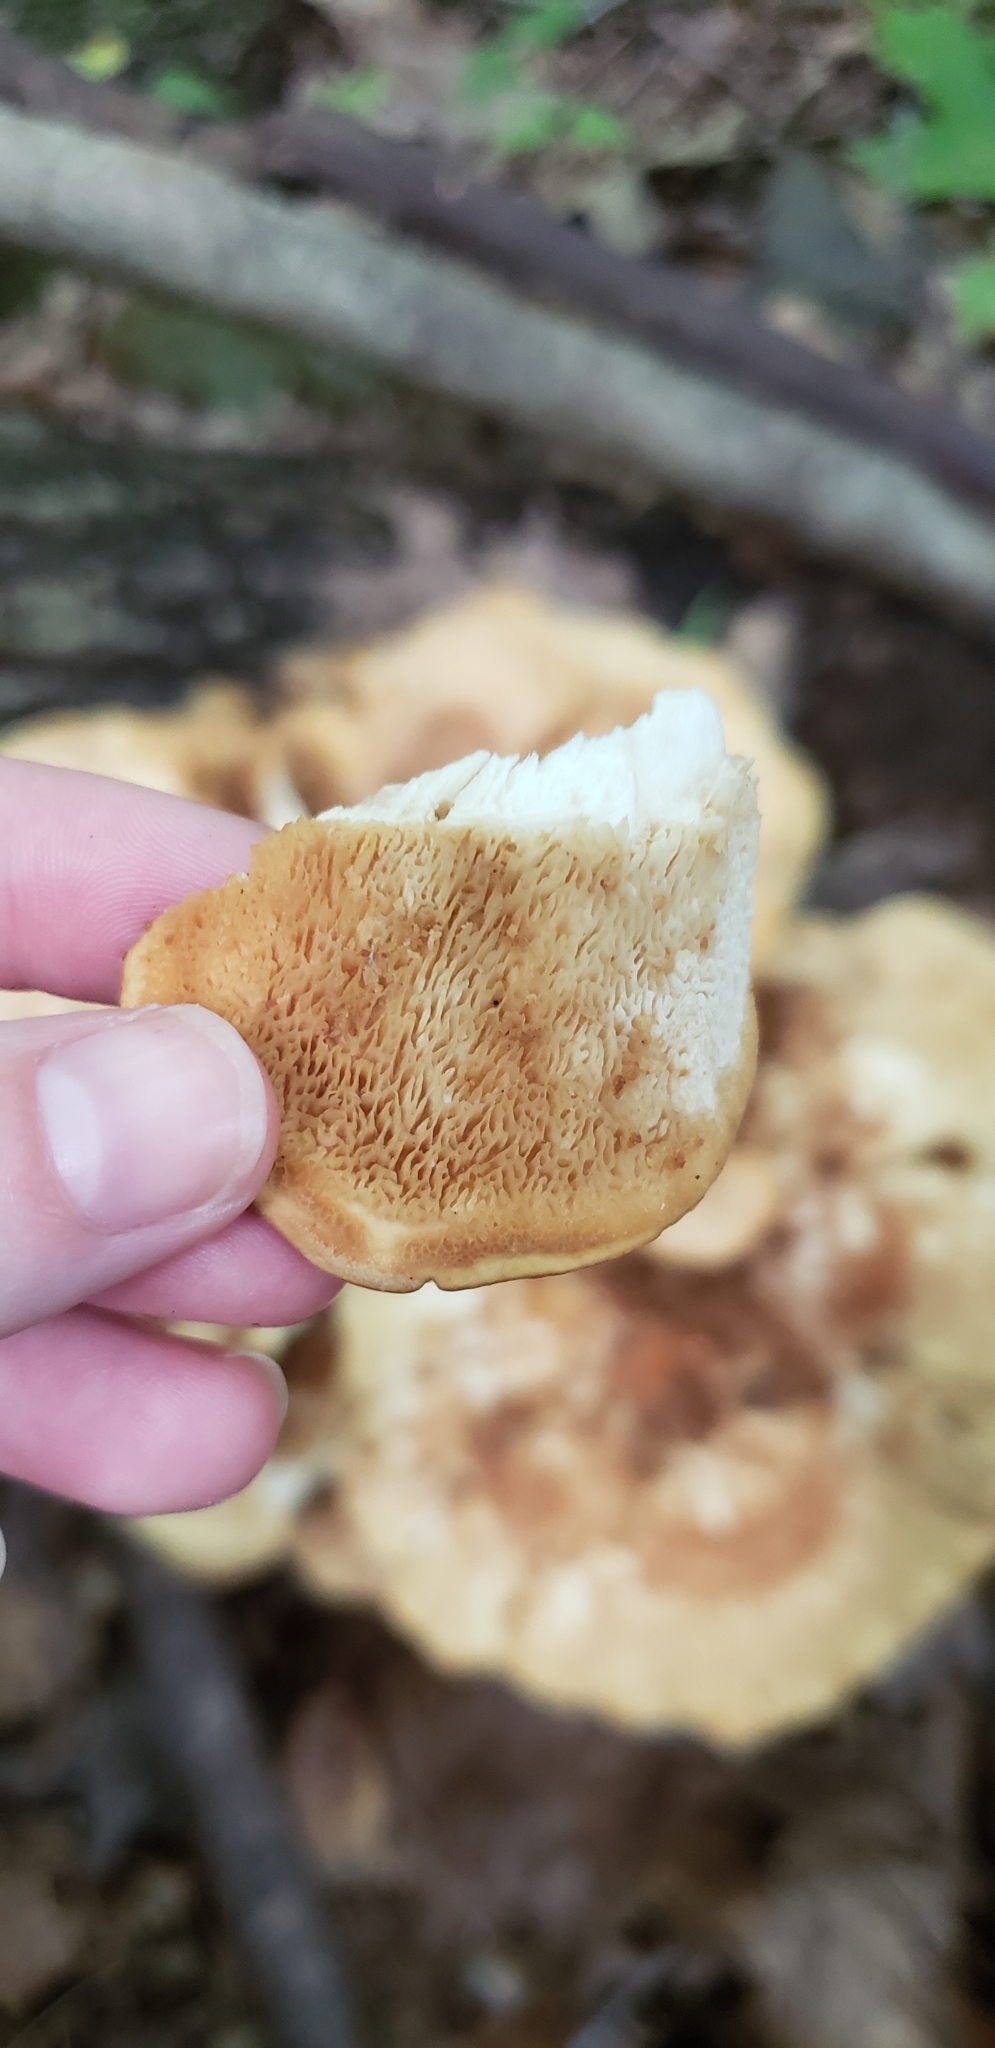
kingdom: Fungi
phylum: Basidiomycota
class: Agaricomycetes
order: Russulales
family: Bondarzewiaceae
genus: Bondarzewia
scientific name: Bondarzewia berkeleyi
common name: Berkeley's polypore
